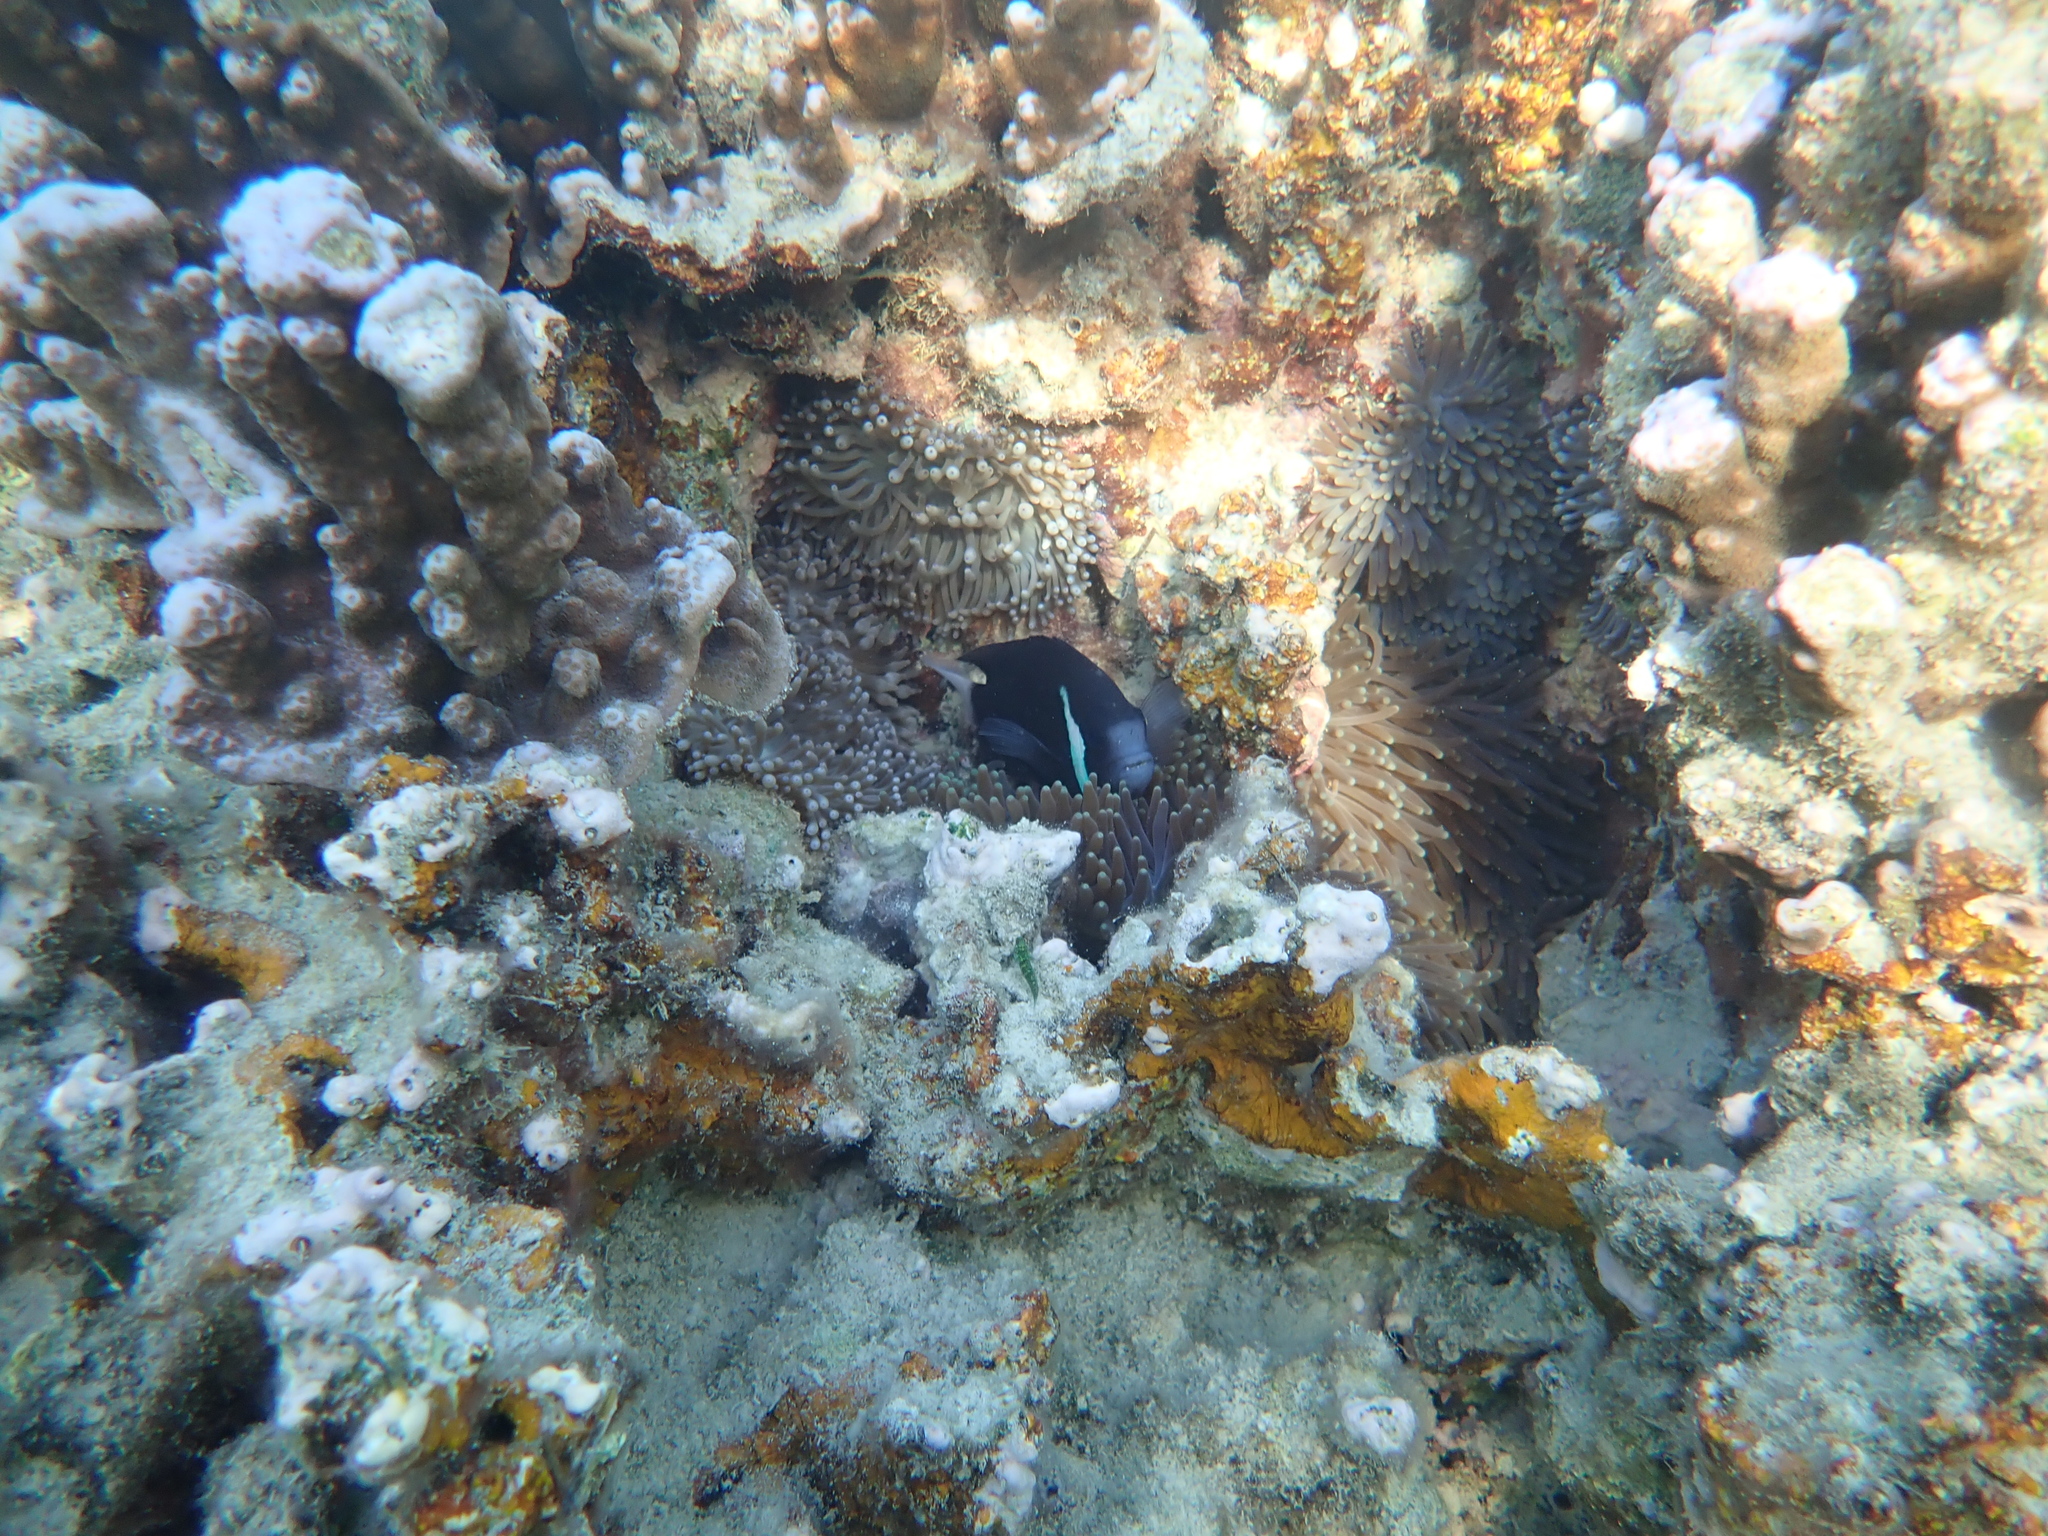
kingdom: Animalia
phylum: Chordata
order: Perciformes
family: Pomacentridae
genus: Amphiprion
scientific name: Amphiprion mccullochi
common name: Mcculloch's anemonefish
